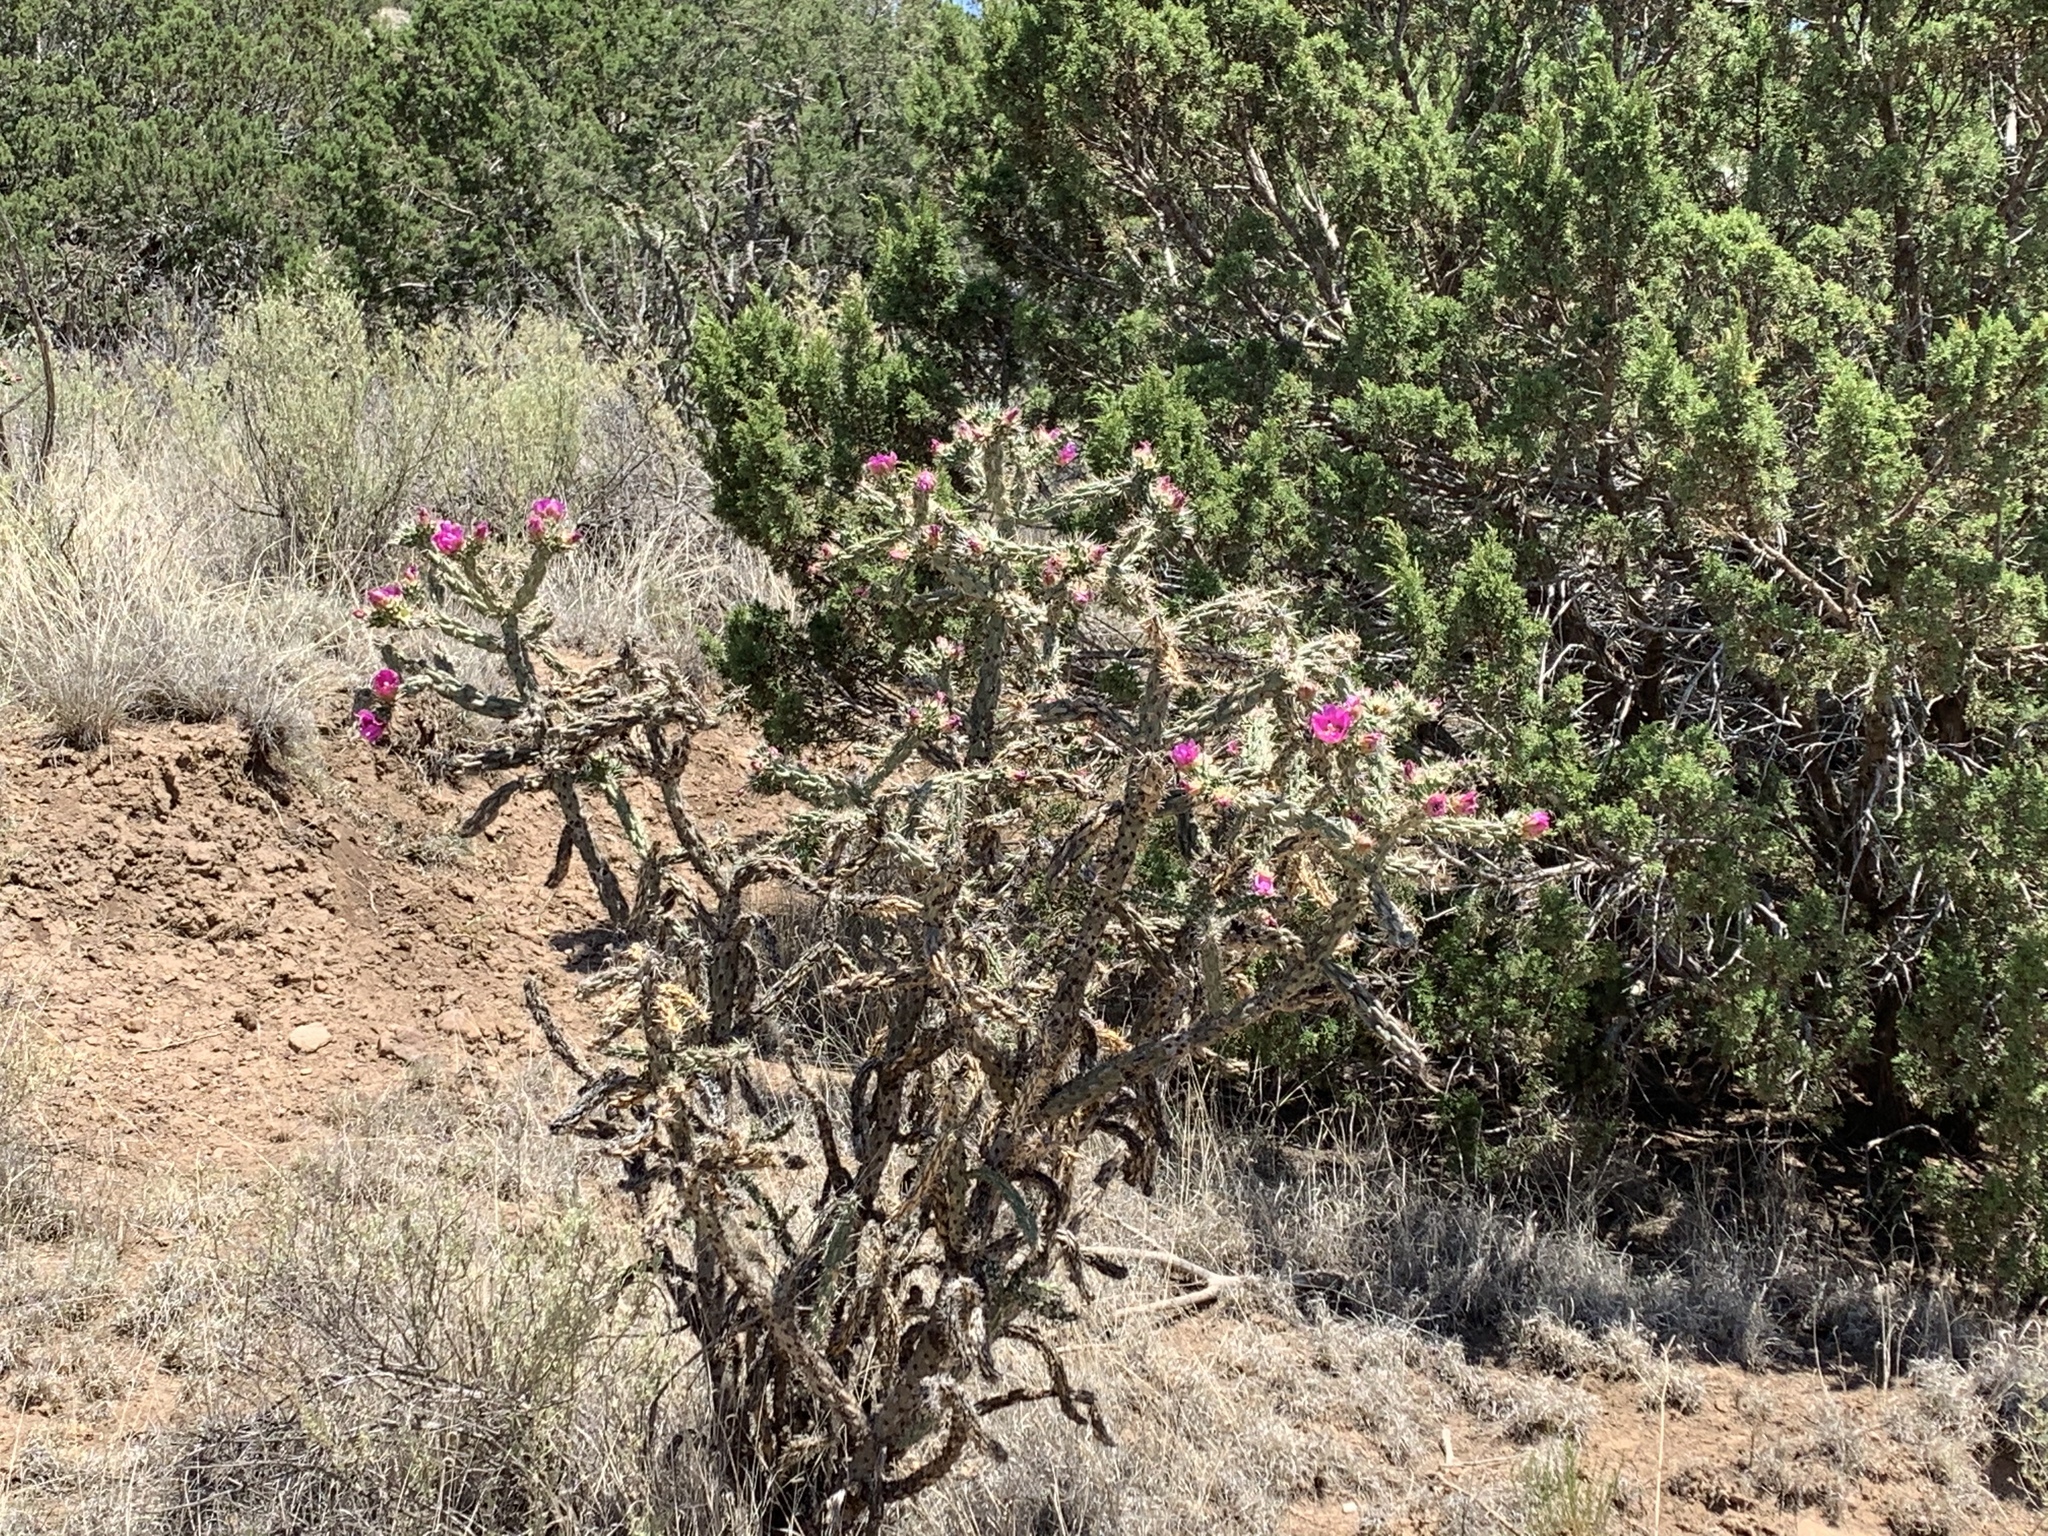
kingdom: Plantae
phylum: Tracheophyta
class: Magnoliopsida
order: Caryophyllales
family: Cactaceae
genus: Cylindropuntia
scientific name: Cylindropuntia imbricata
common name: Candelabrum cactus
